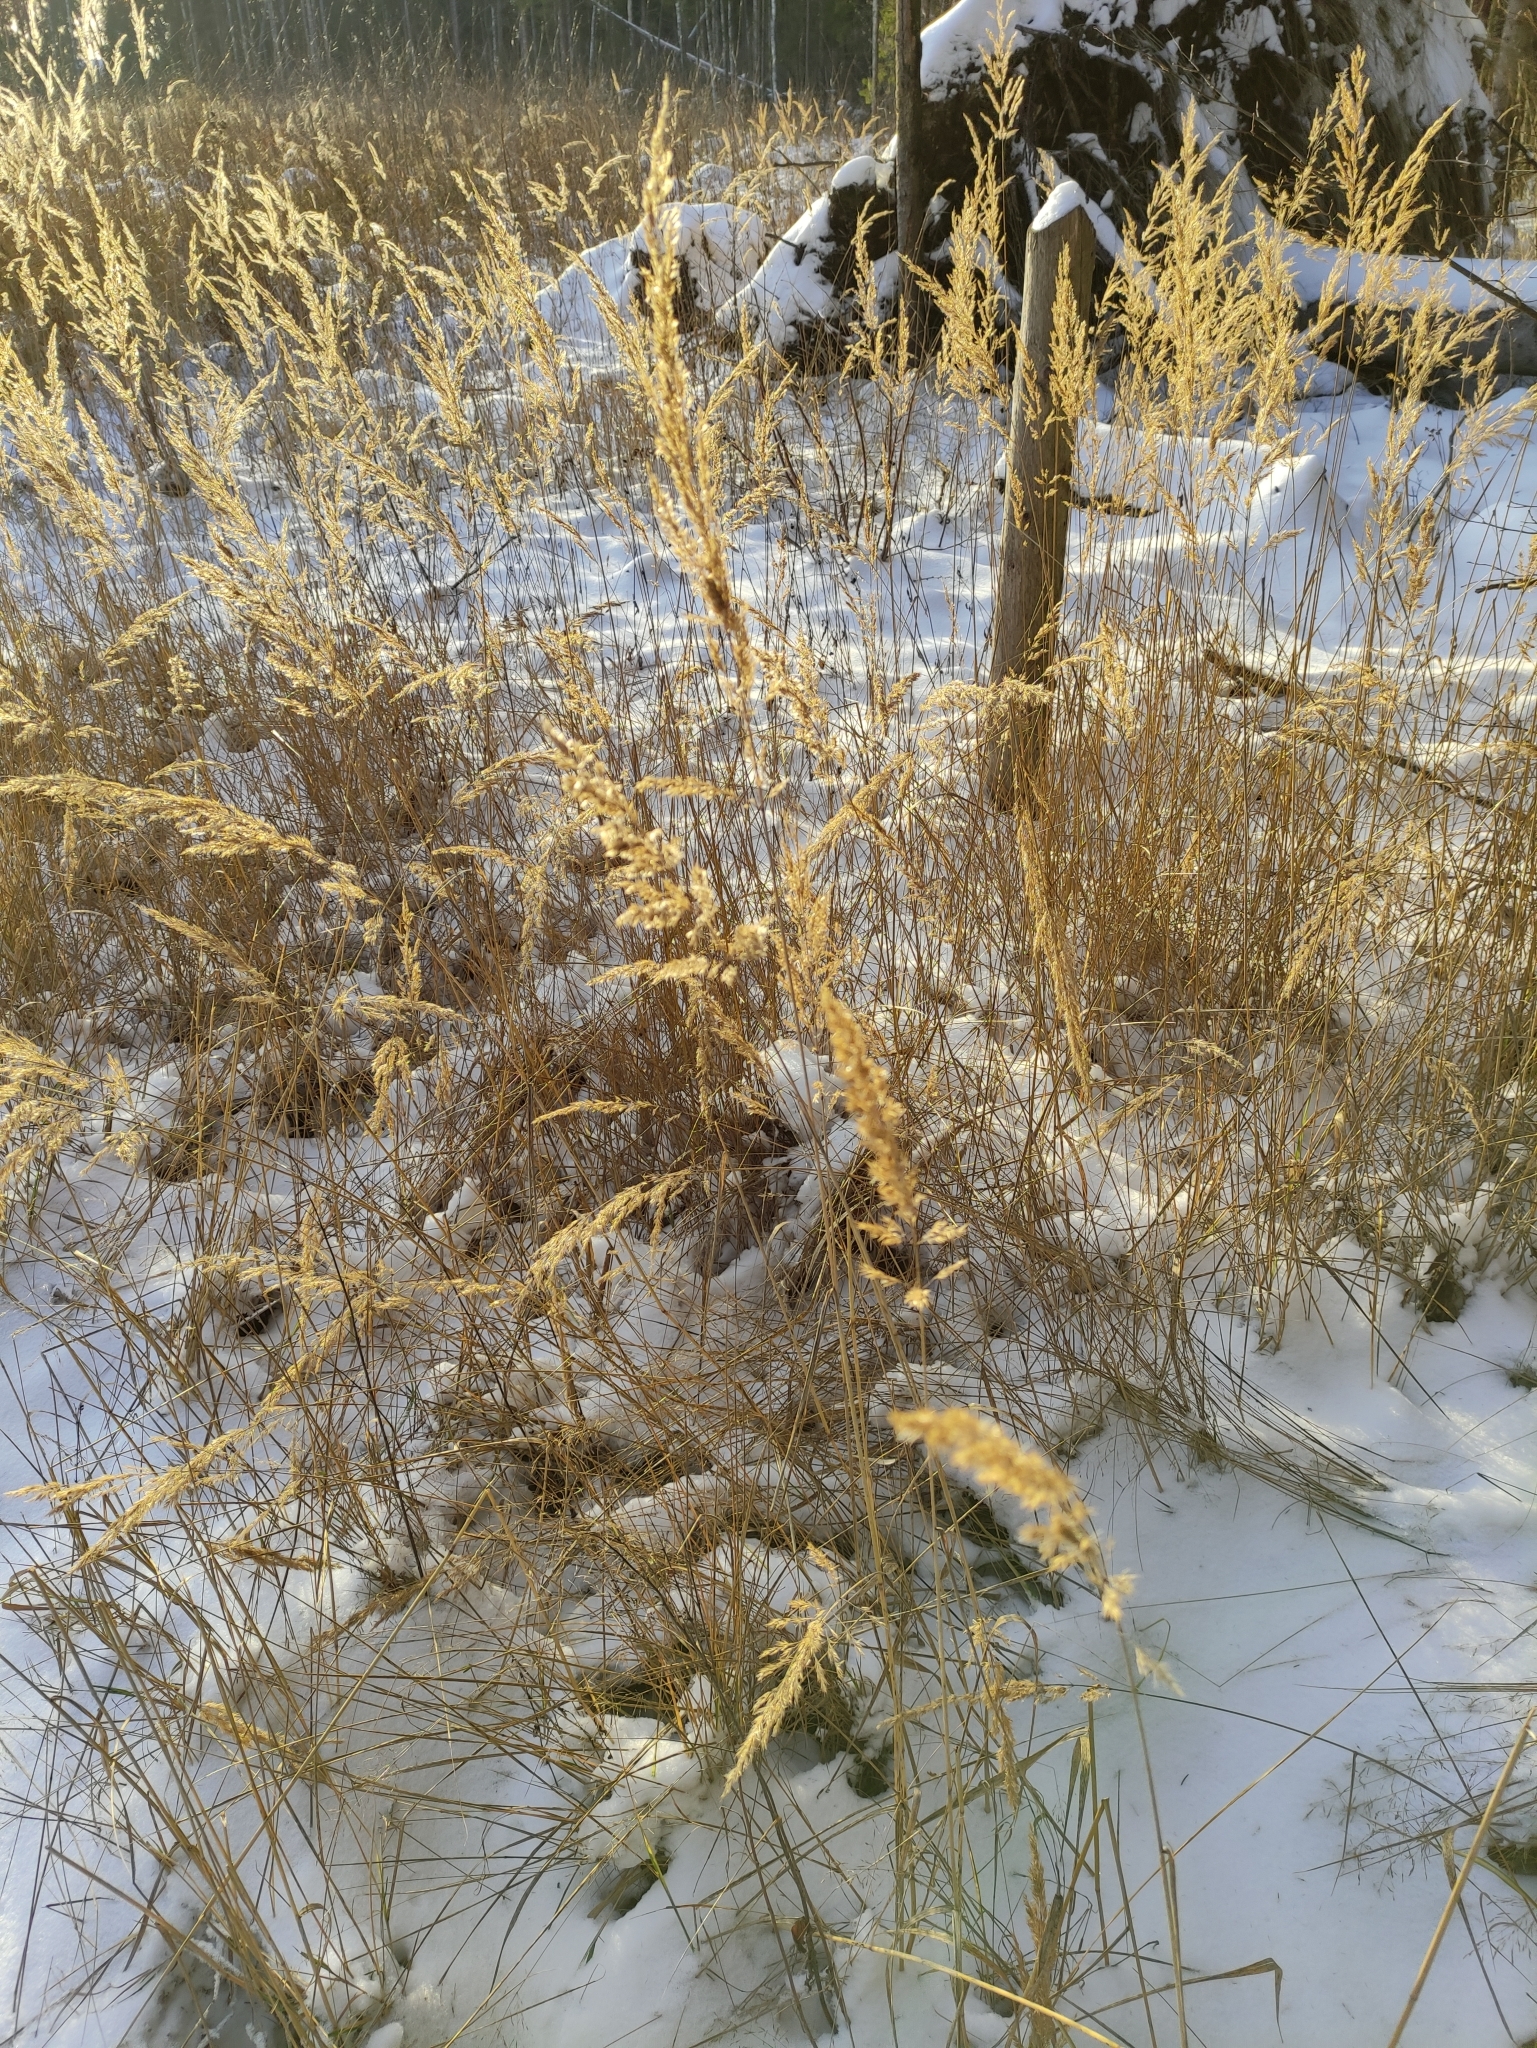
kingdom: Plantae
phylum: Tracheophyta
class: Liliopsida
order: Poales
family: Poaceae
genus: Calamagrostis
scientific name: Calamagrostis epigejos
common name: Wood small-reed
